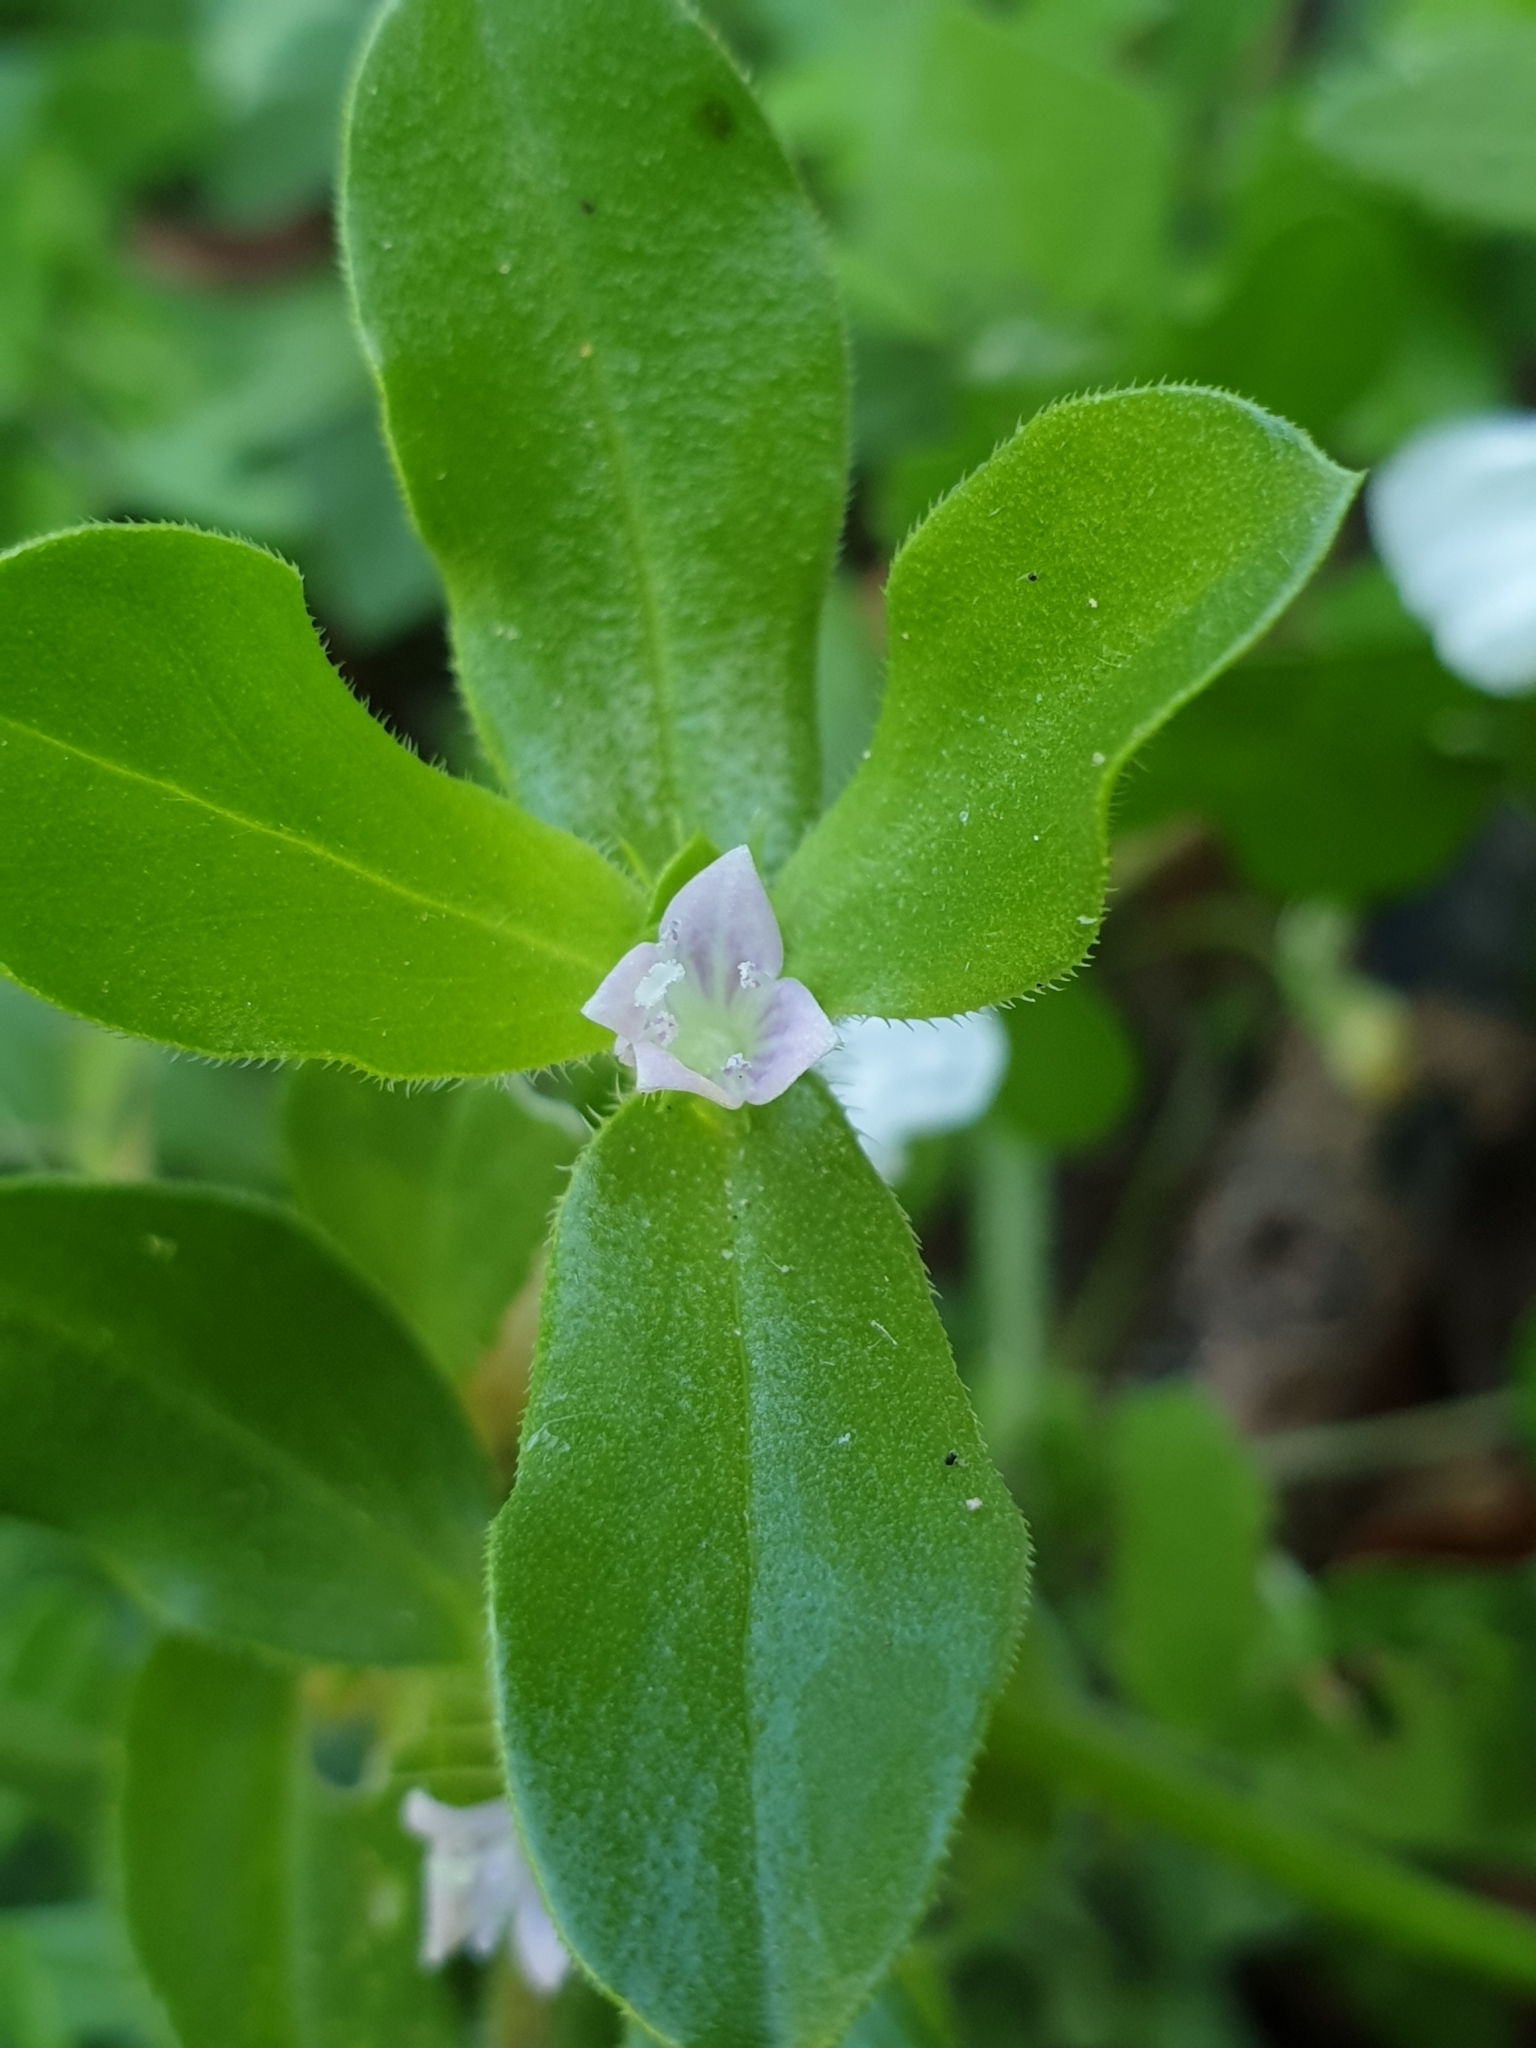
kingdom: Plantae
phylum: Tracheophyta
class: Magnoliopsida
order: Gentianales
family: Rubiaceae
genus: Spermacoce
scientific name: Spermacoce alata
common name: Winged false buttonweed
